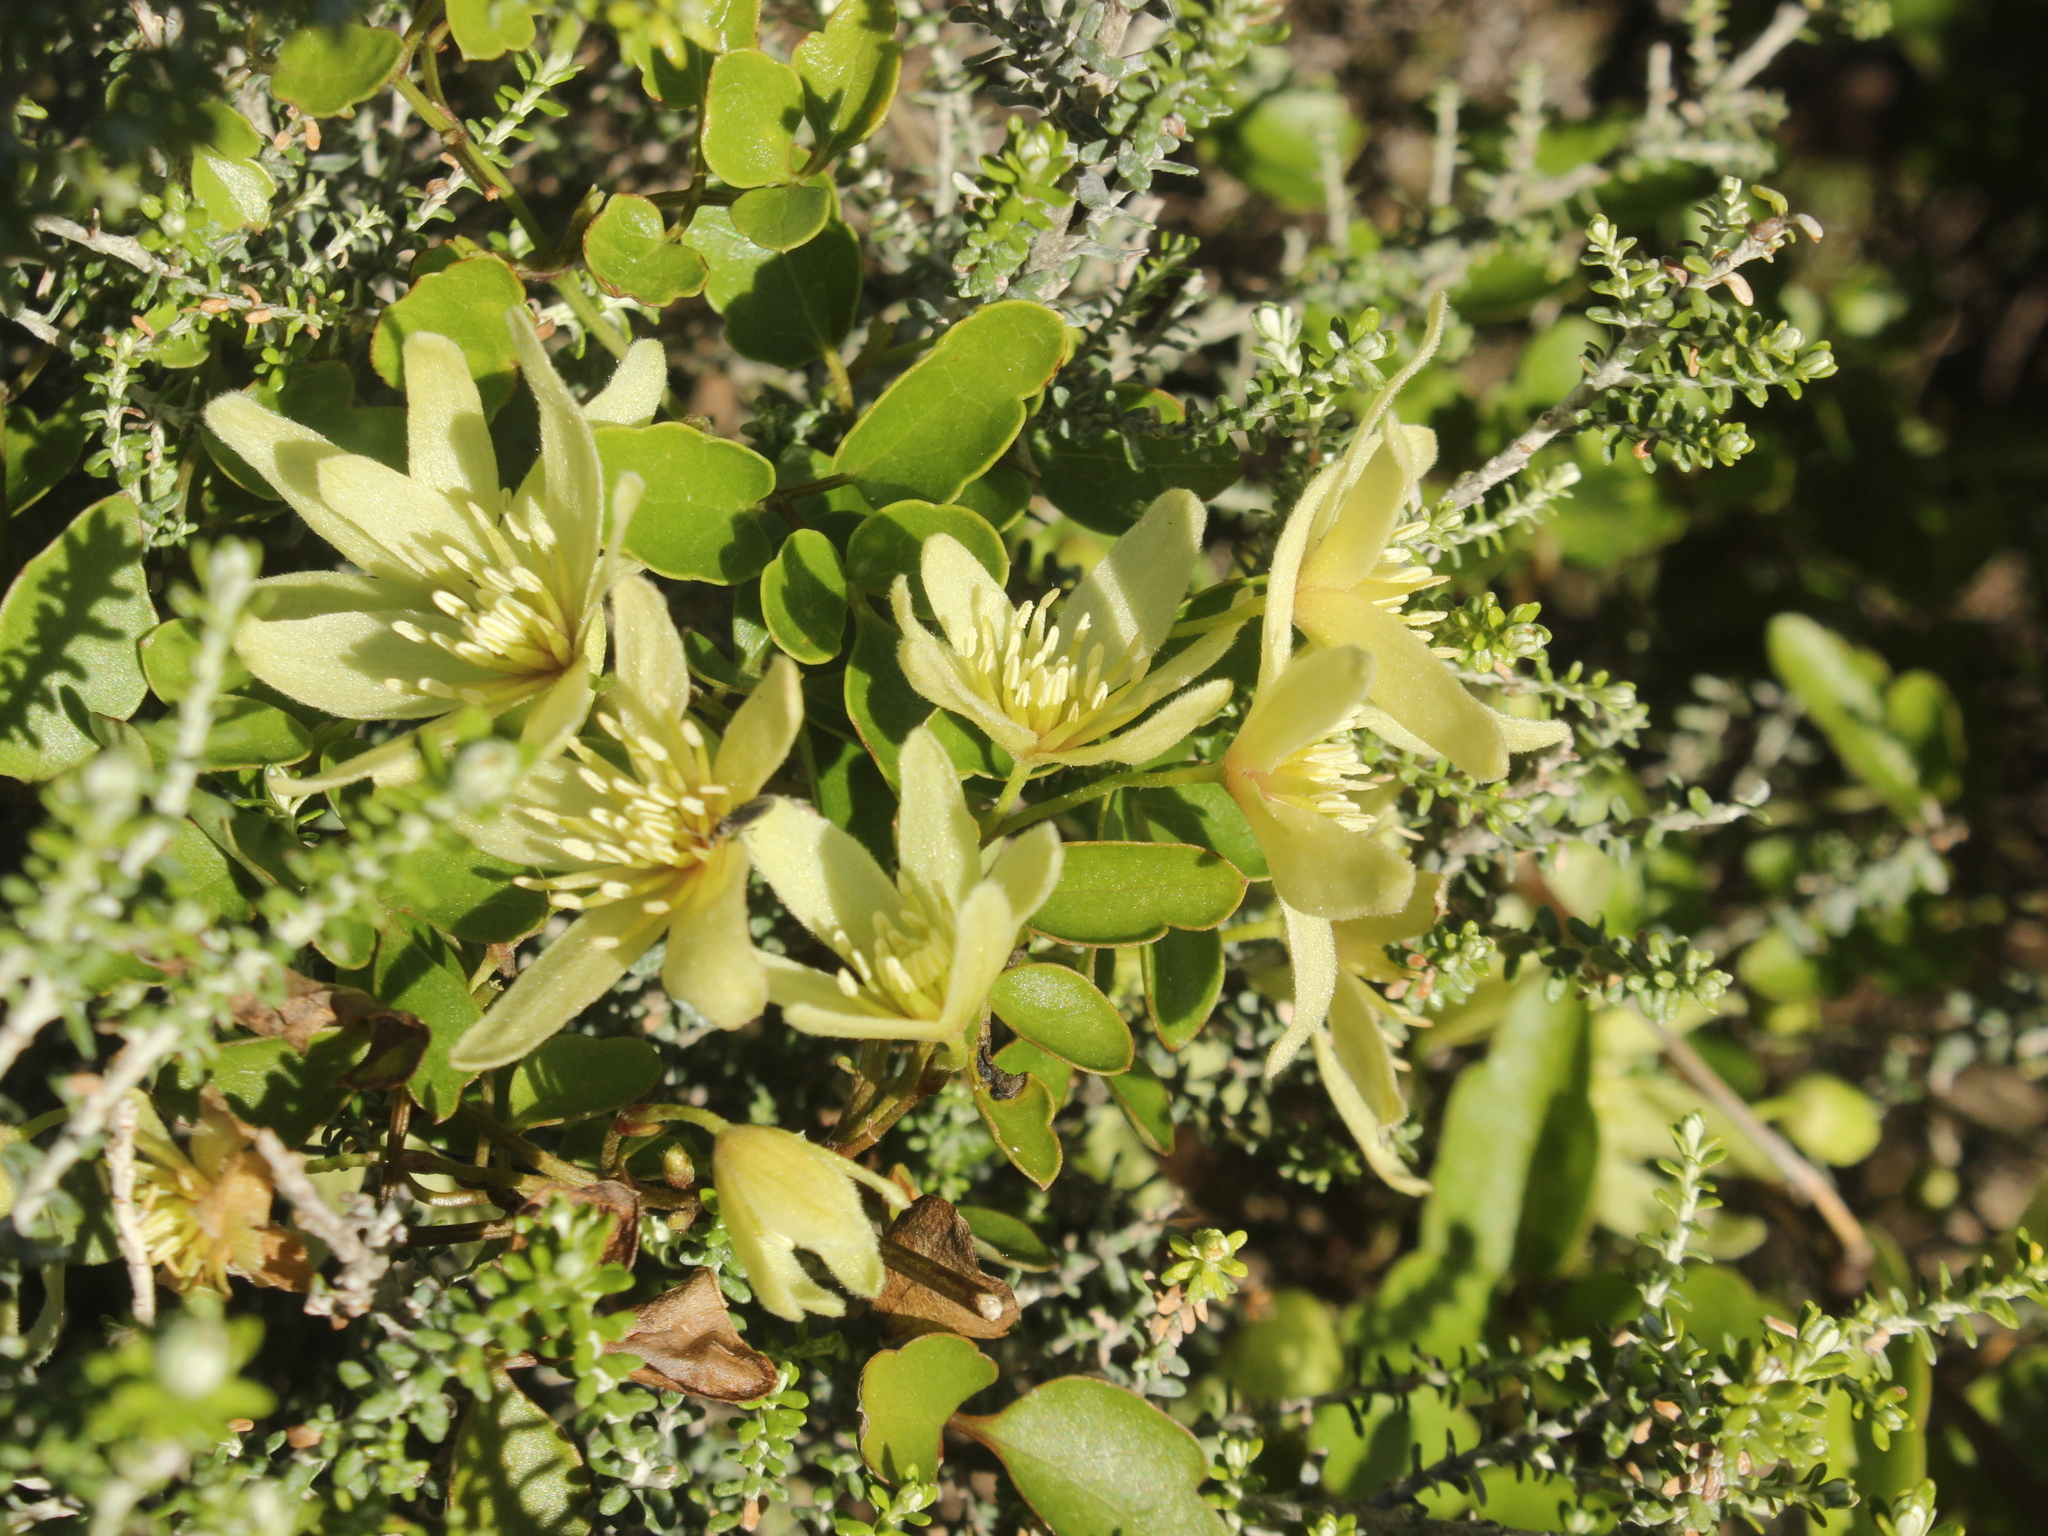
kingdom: Plantae
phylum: Tracheophyta
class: Magnoliopsida
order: Ranunculales
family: Ranunculaceae
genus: Clematis
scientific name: Clematis forsteri
